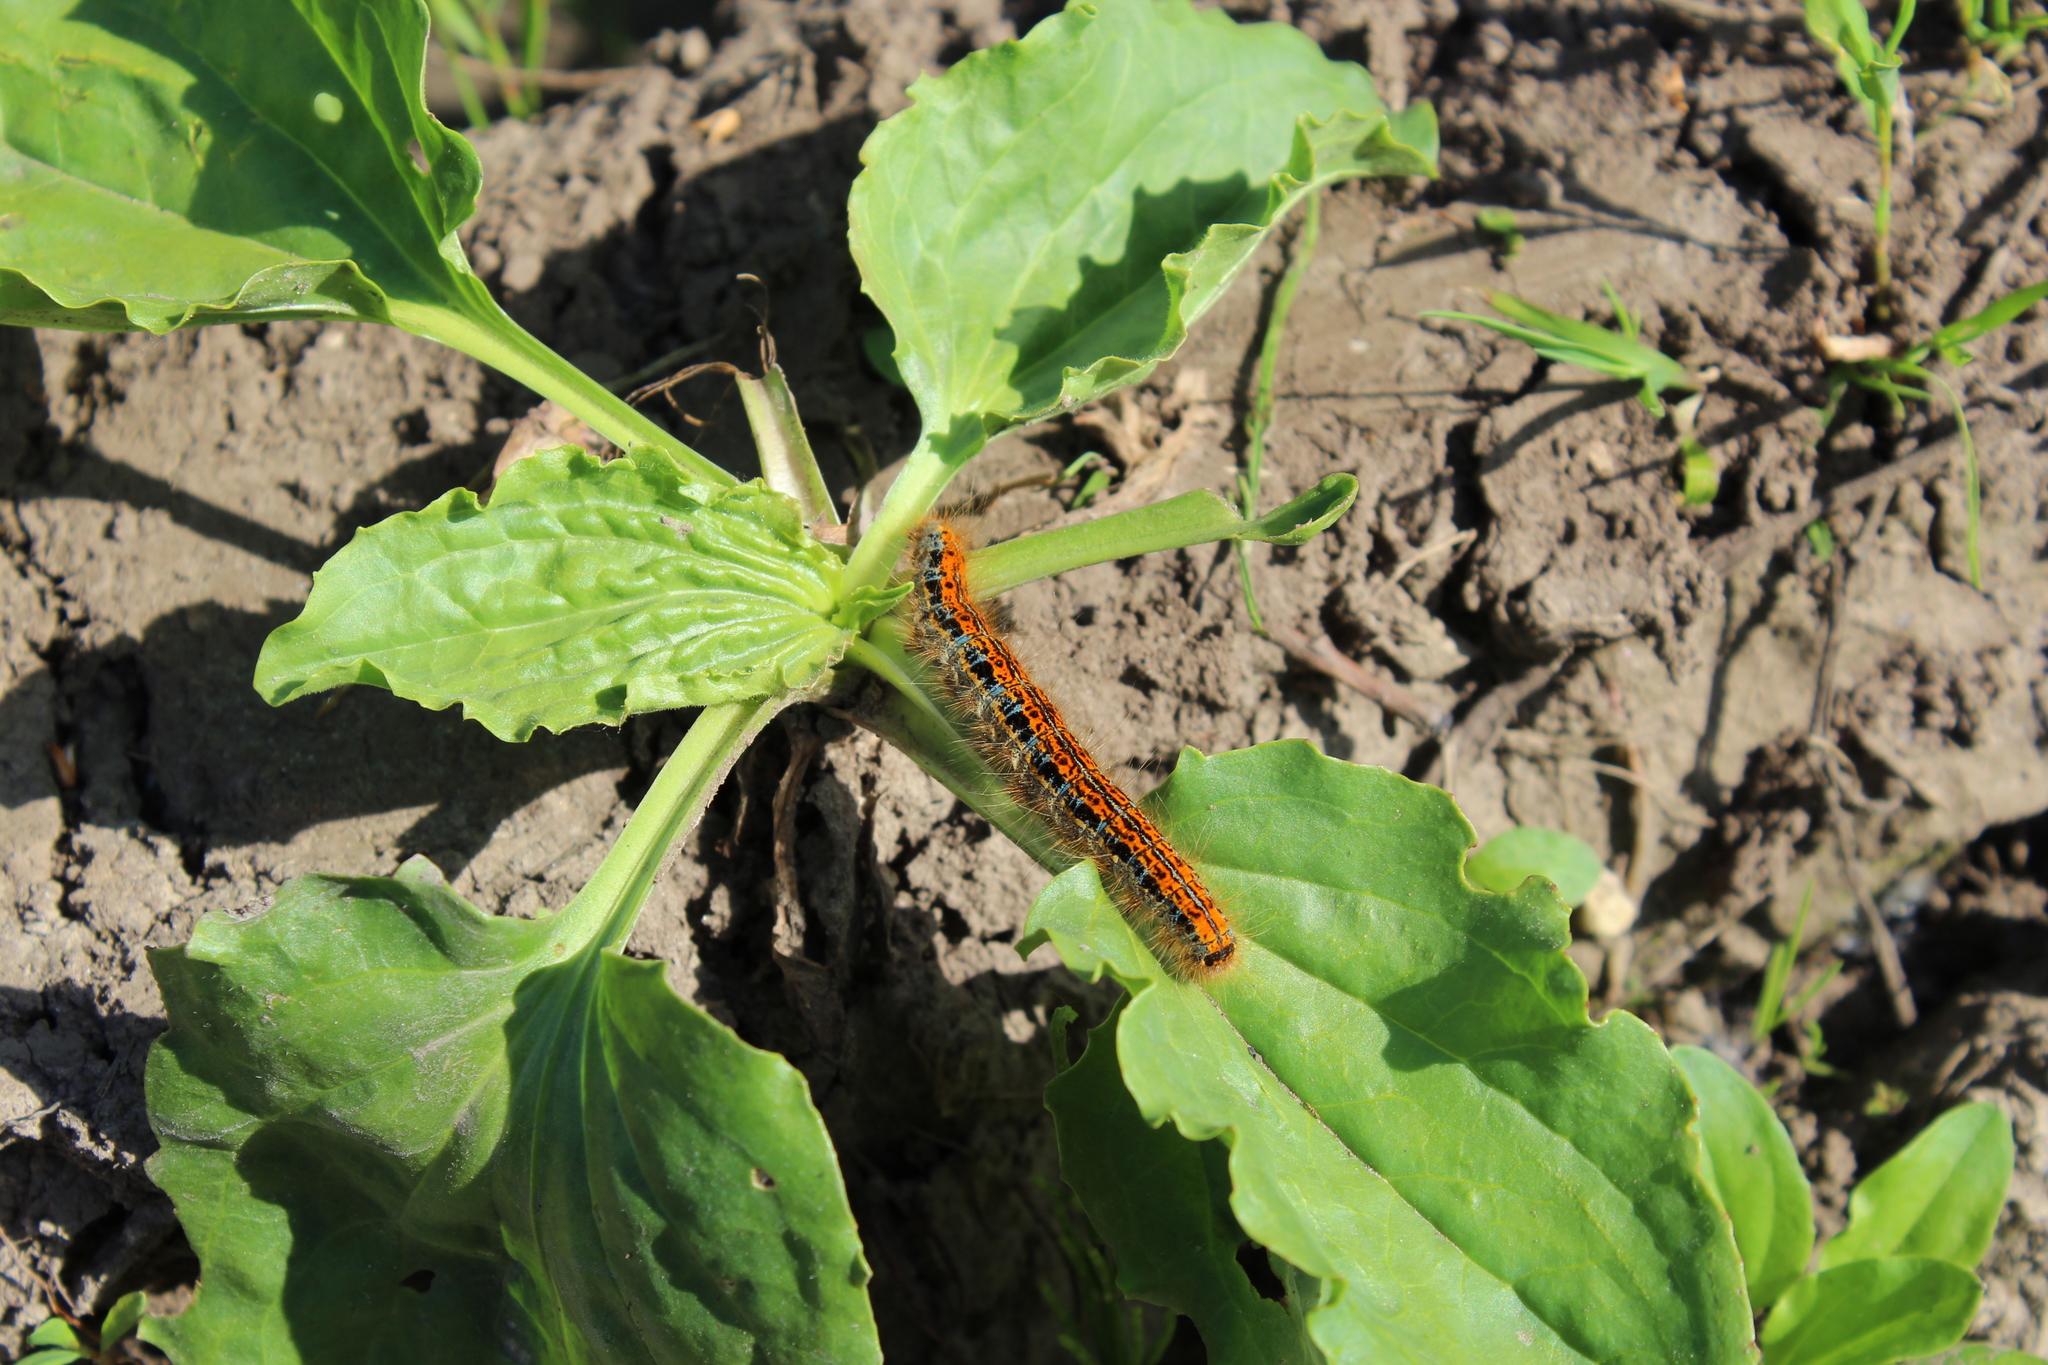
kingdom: Animalia
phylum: Arthropoda
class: Insecta
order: Lepidoptera
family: Lasiocampidae
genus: Malacosoma
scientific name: Malacosoma castrense
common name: Ground lackey
